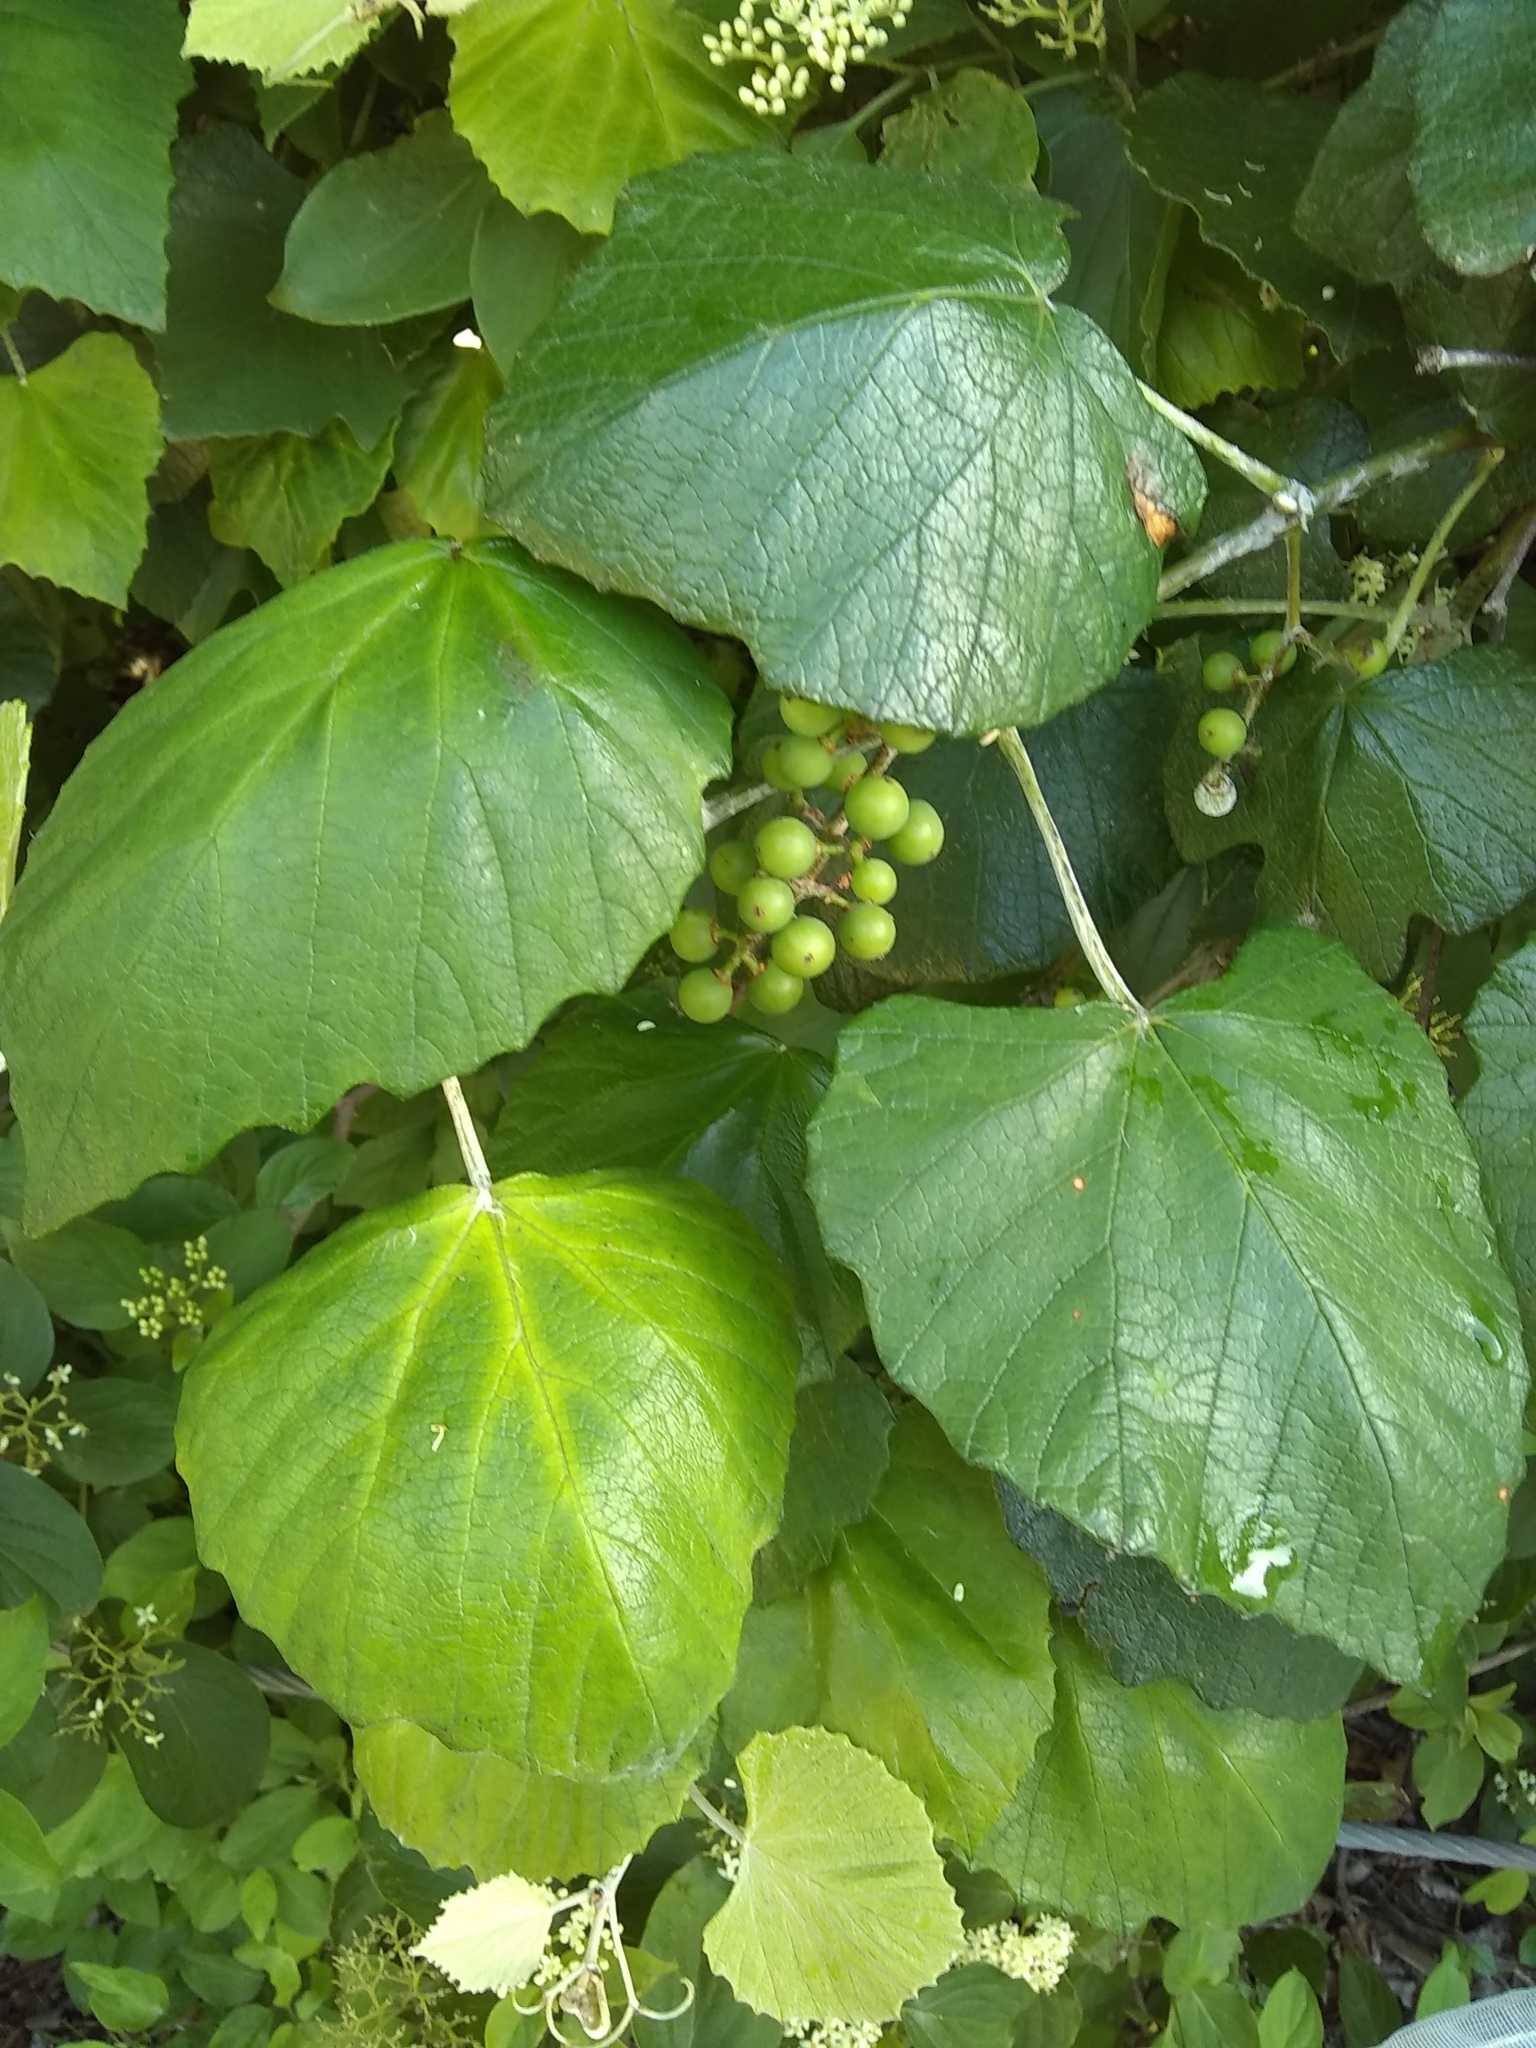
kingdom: Plantae
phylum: Tracheophyta
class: Magnoliopsida
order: Vitales
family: Vitaceae
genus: Vitis
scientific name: Vitis mustangensis
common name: Mustang grape
